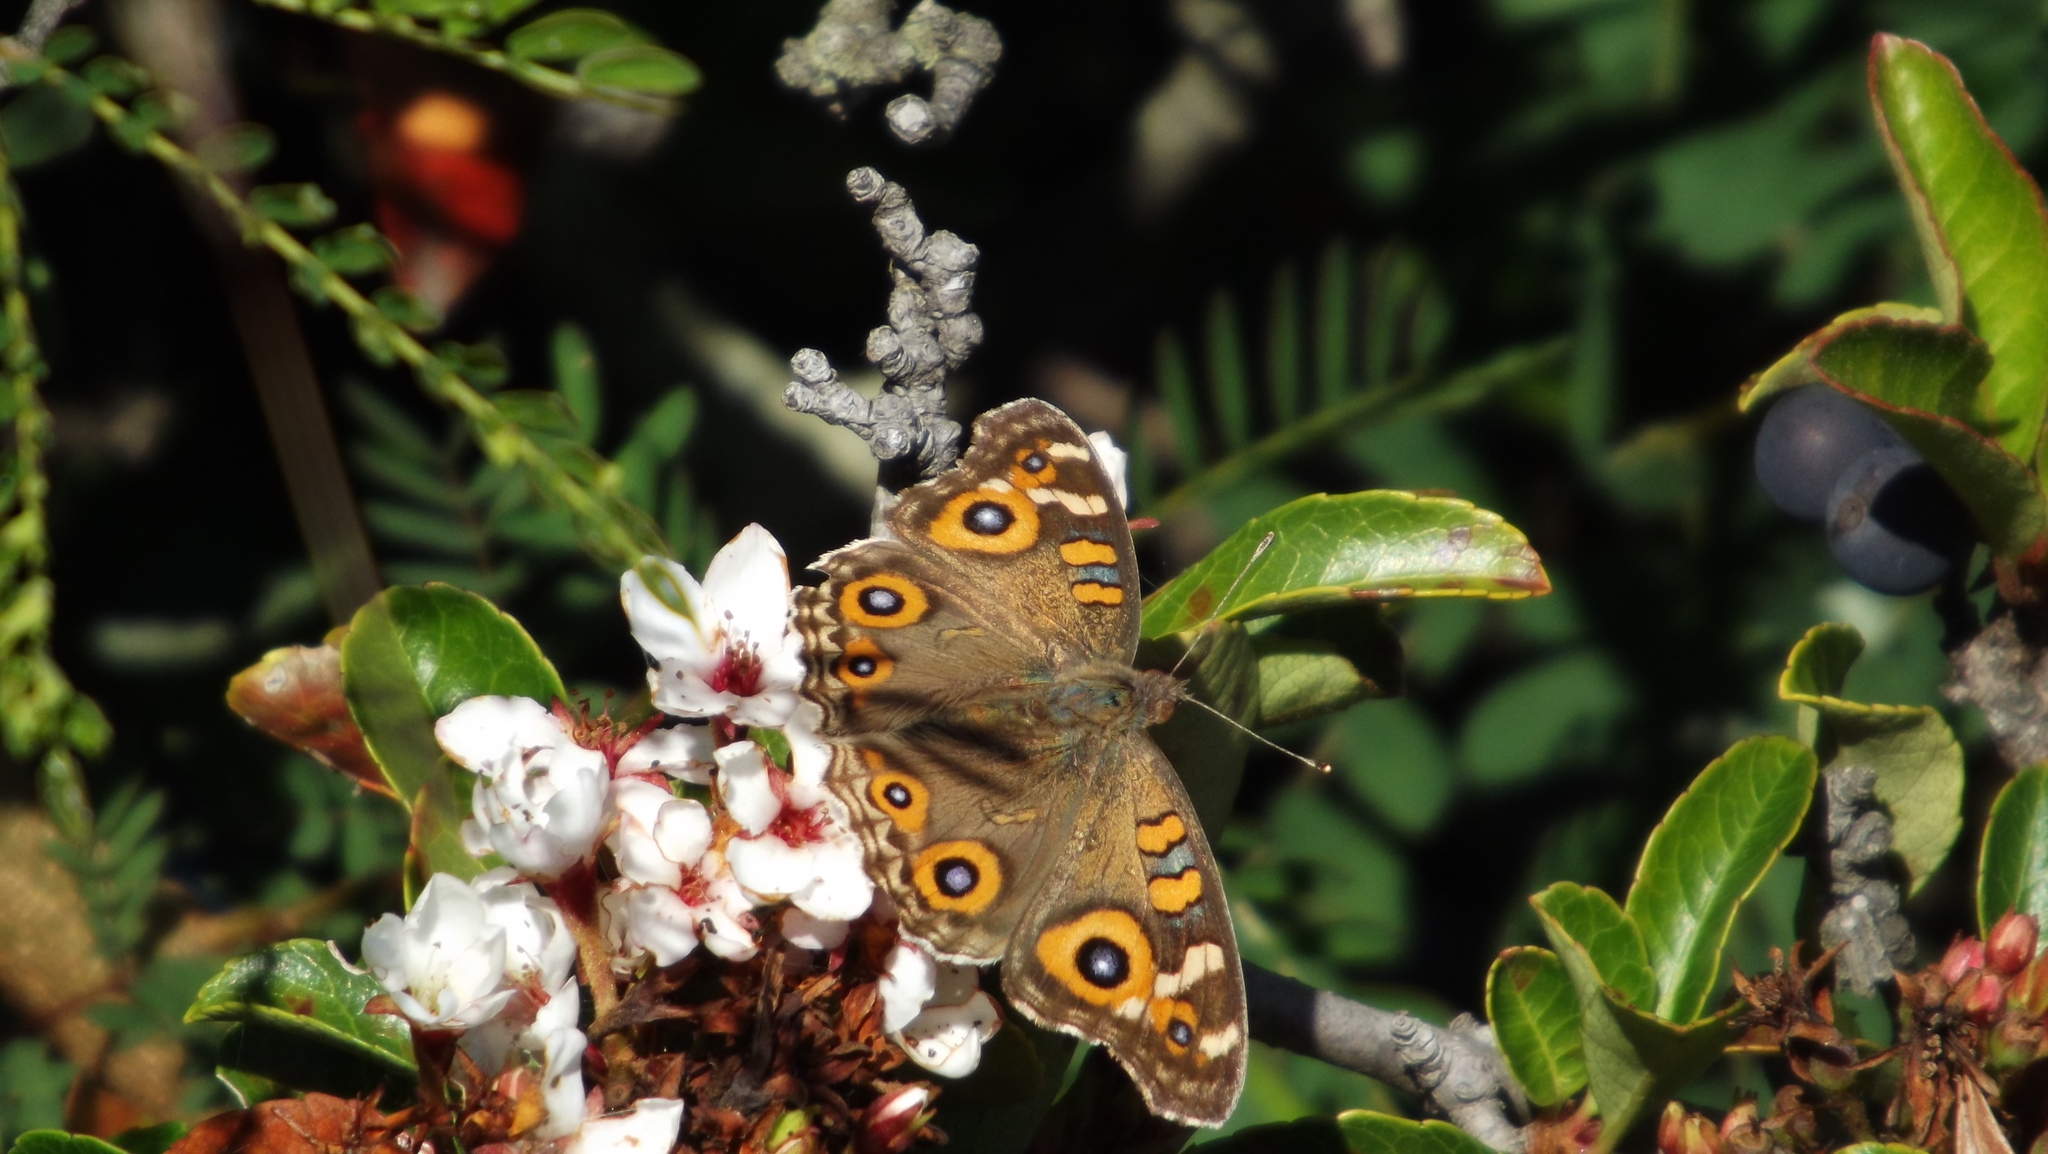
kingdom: Animalia
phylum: Arthropoda
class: Insecta
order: Lepidoptera
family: Nymphalidae
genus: Junonia
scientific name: Junonia villida
